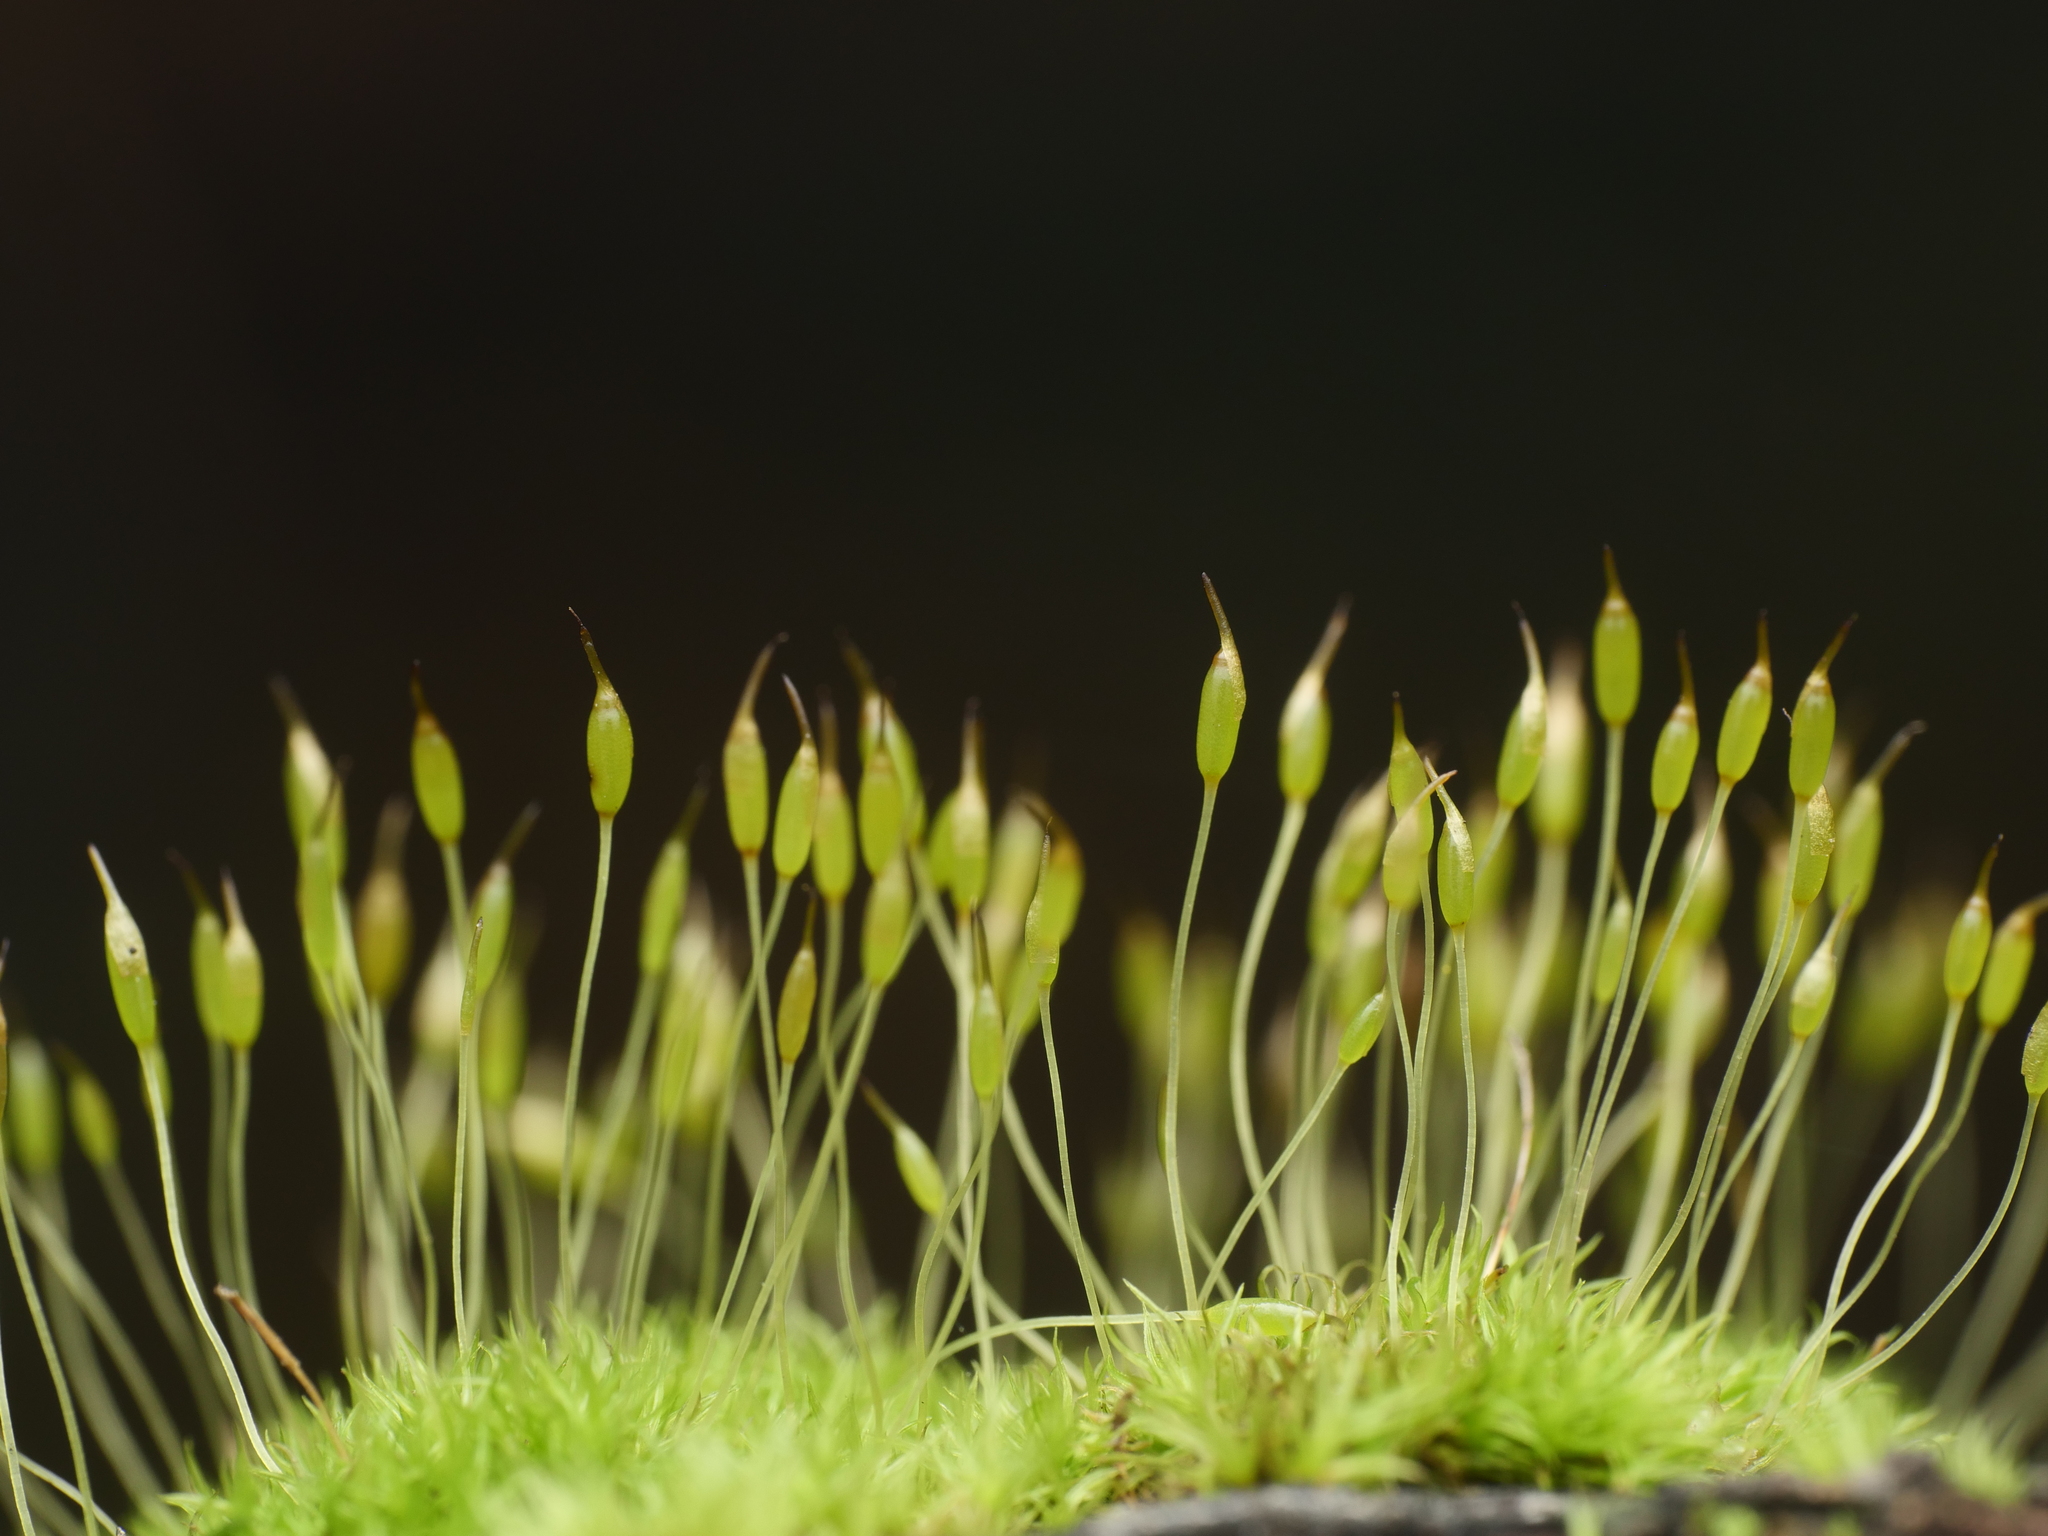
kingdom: Plantae
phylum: Bryophyta
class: Bryopsida
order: Dicranales
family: Rhabdoweisiaceae
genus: Dicranoweisia
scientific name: Dicranoweisia cirrata
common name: Common pincushion
